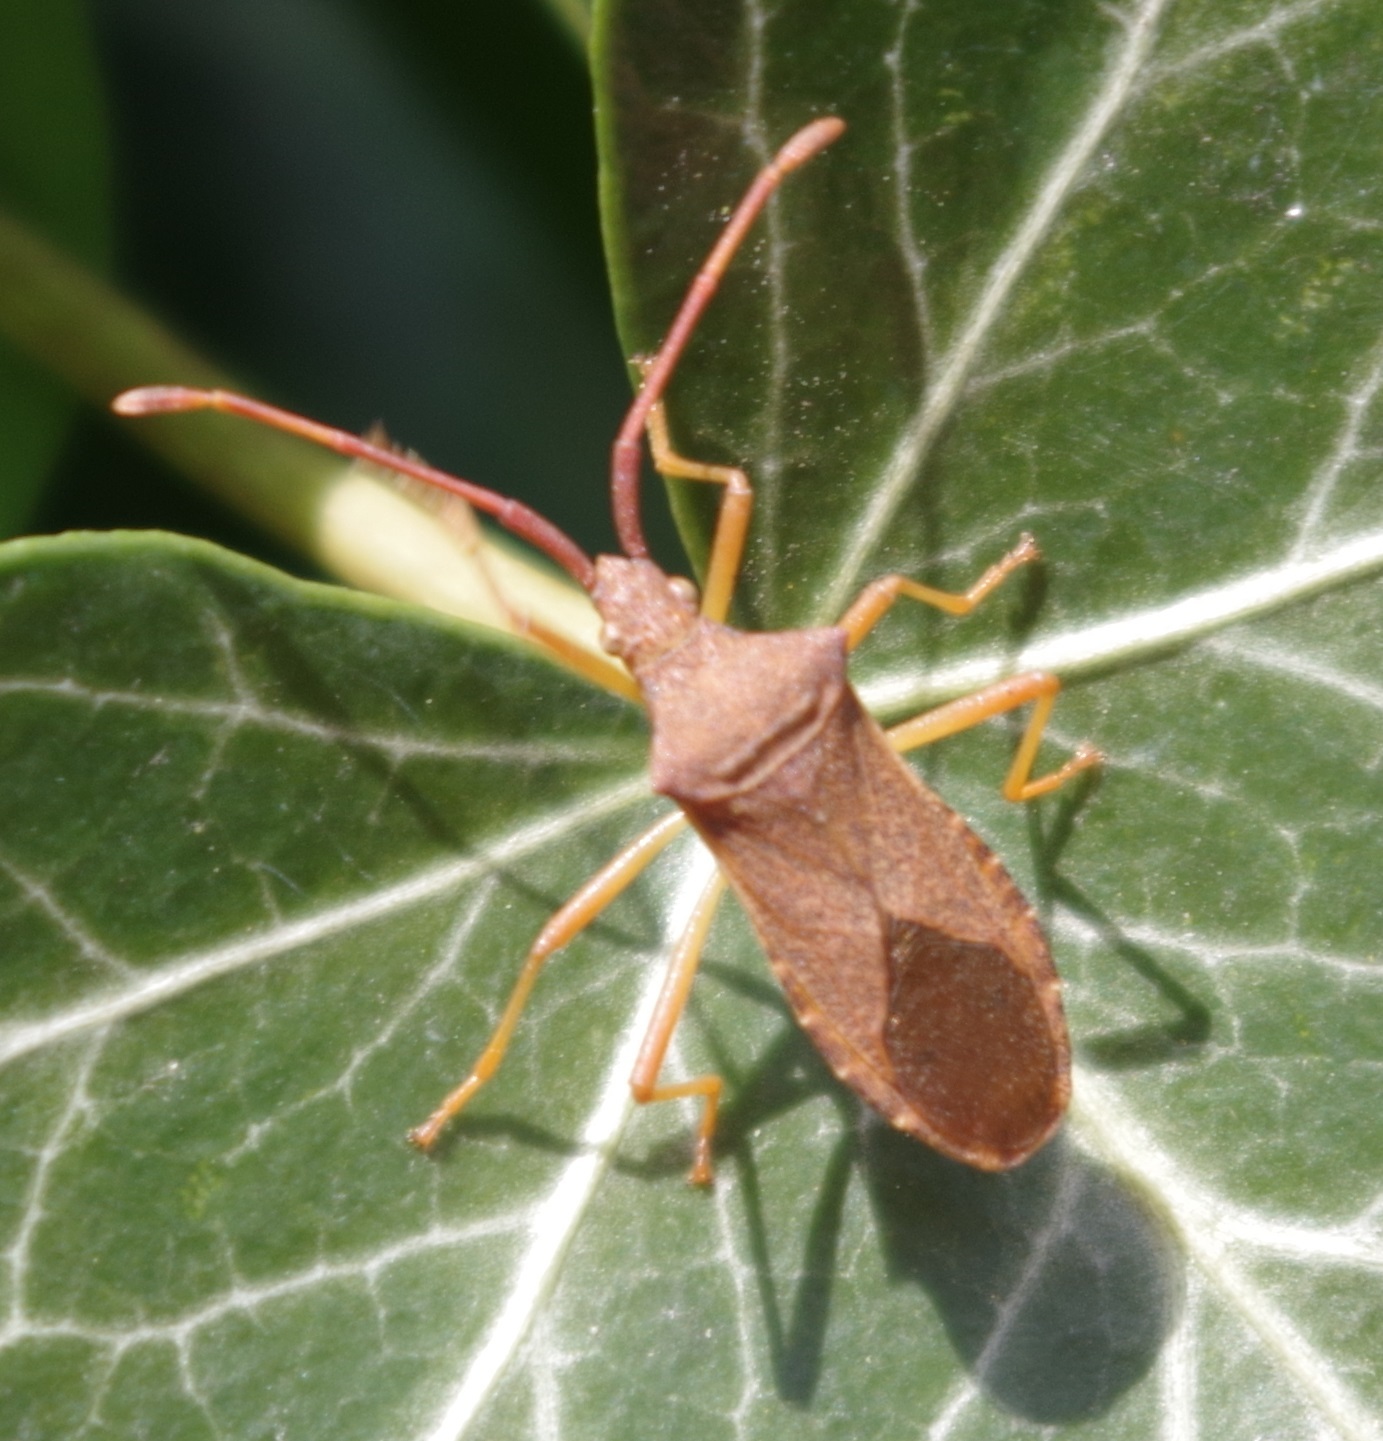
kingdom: Animalia
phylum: Arthropoda
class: Insecta
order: Hemiptera
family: Coreidae
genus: Gonocerus
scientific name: Gonocerus acuteangulatus
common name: Box bug
